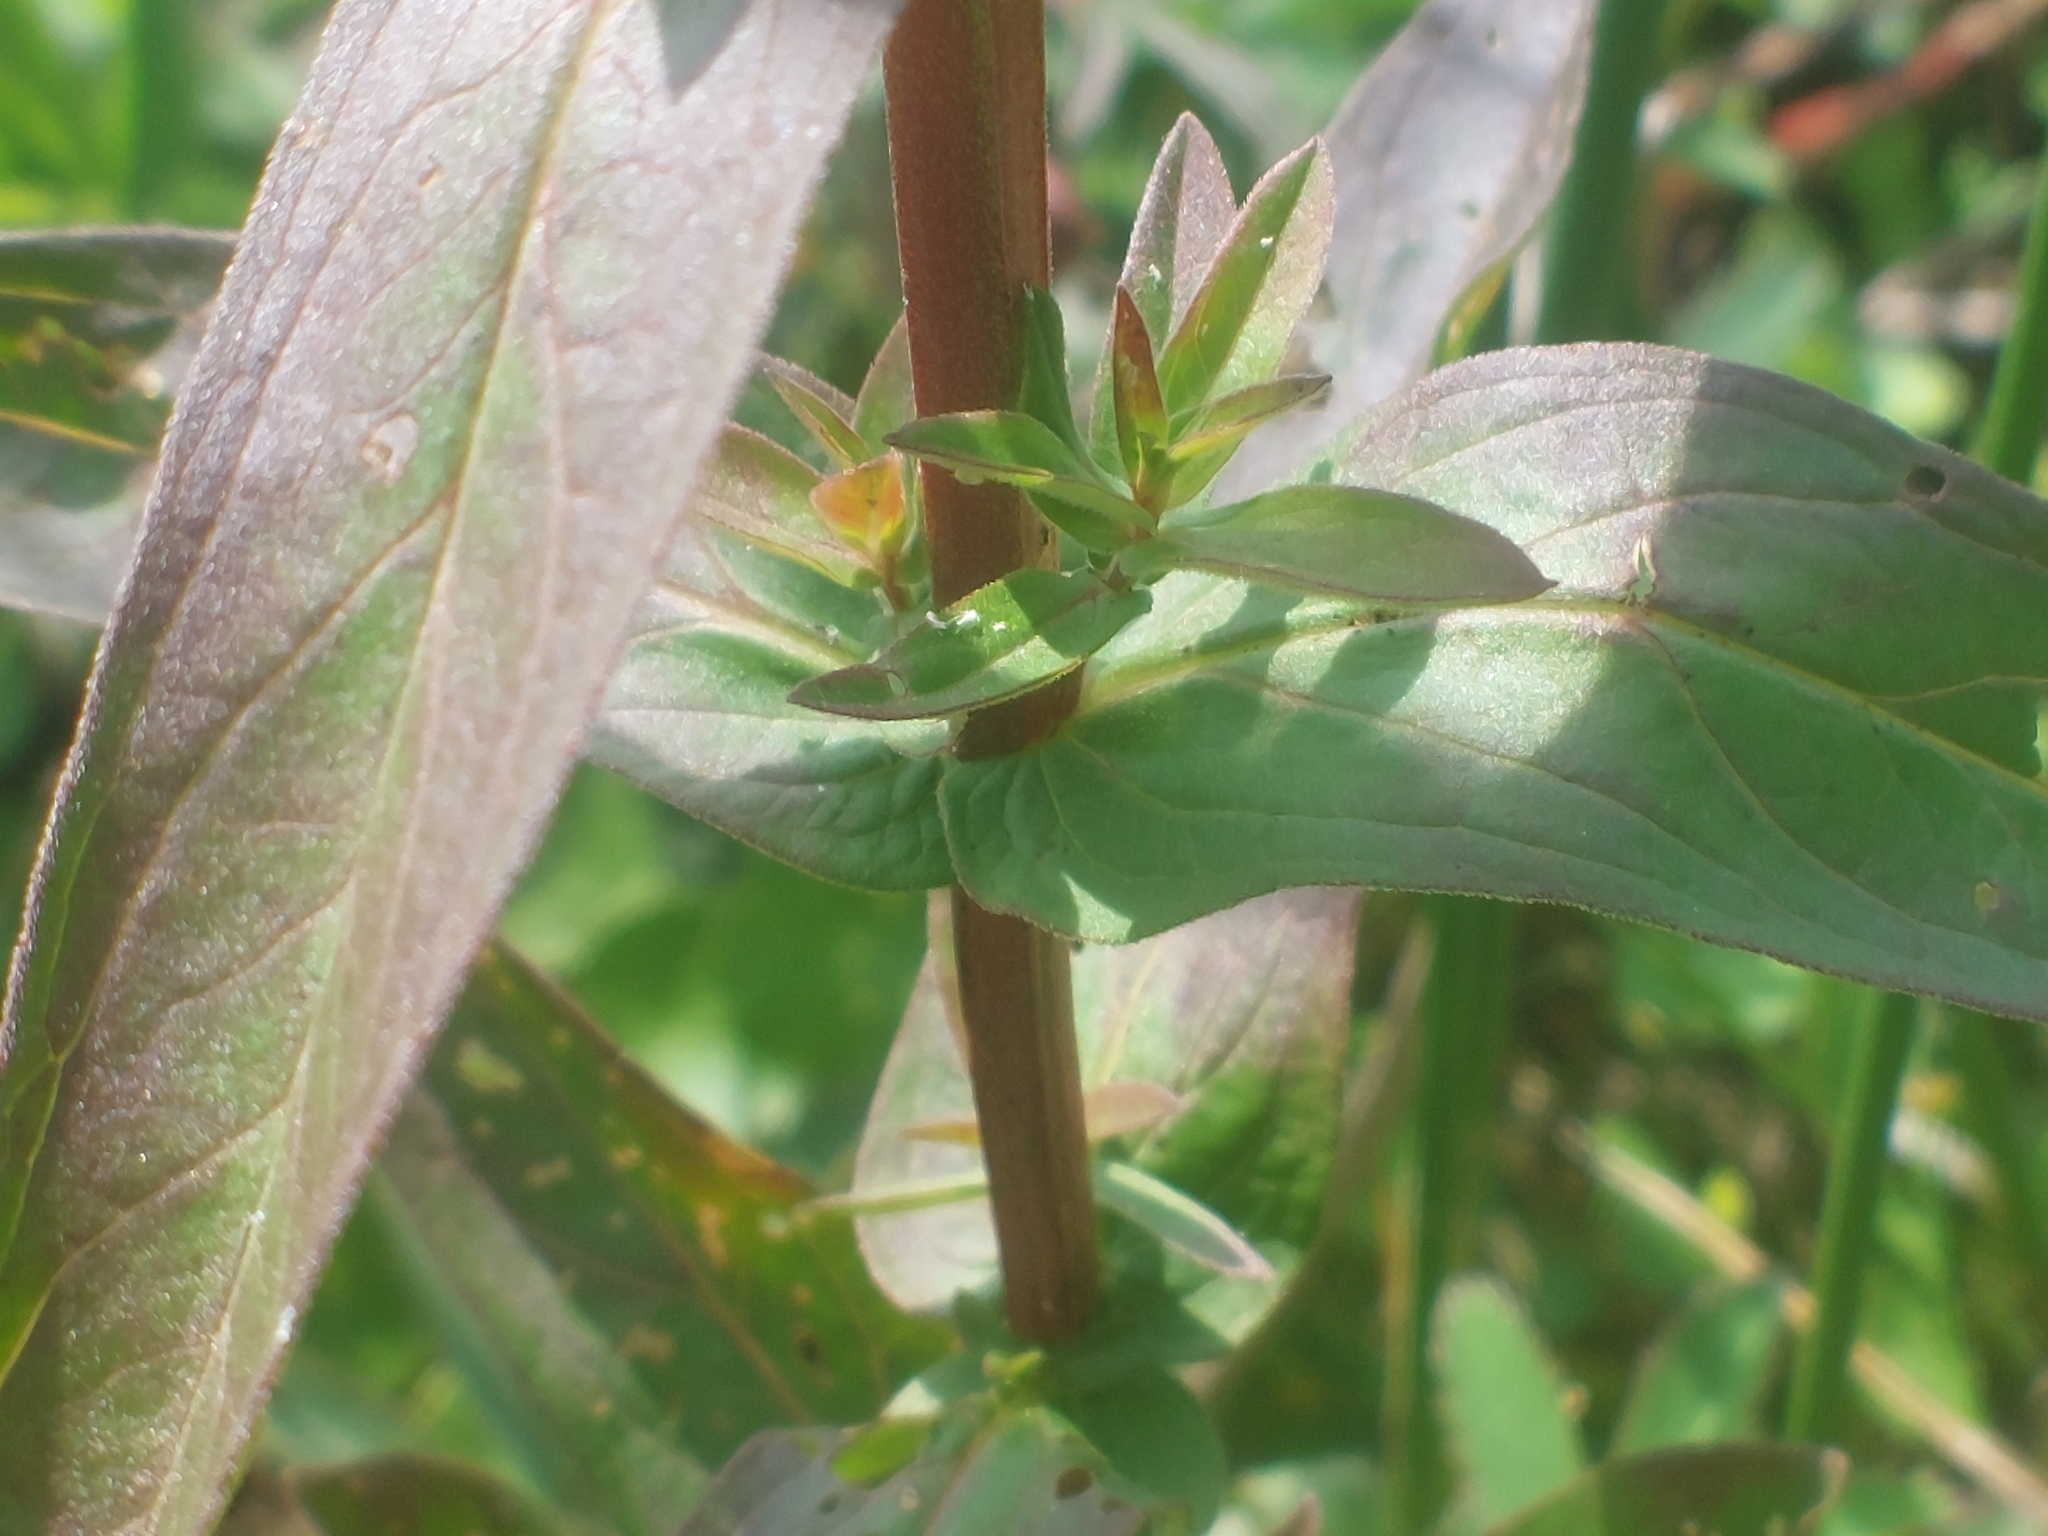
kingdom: Plantae
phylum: Tracheophyta
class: Magnoliopsida
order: Myrtales
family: Lythraceae
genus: Lythrum
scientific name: Lythrum salicaria
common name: Purple loosestrife
